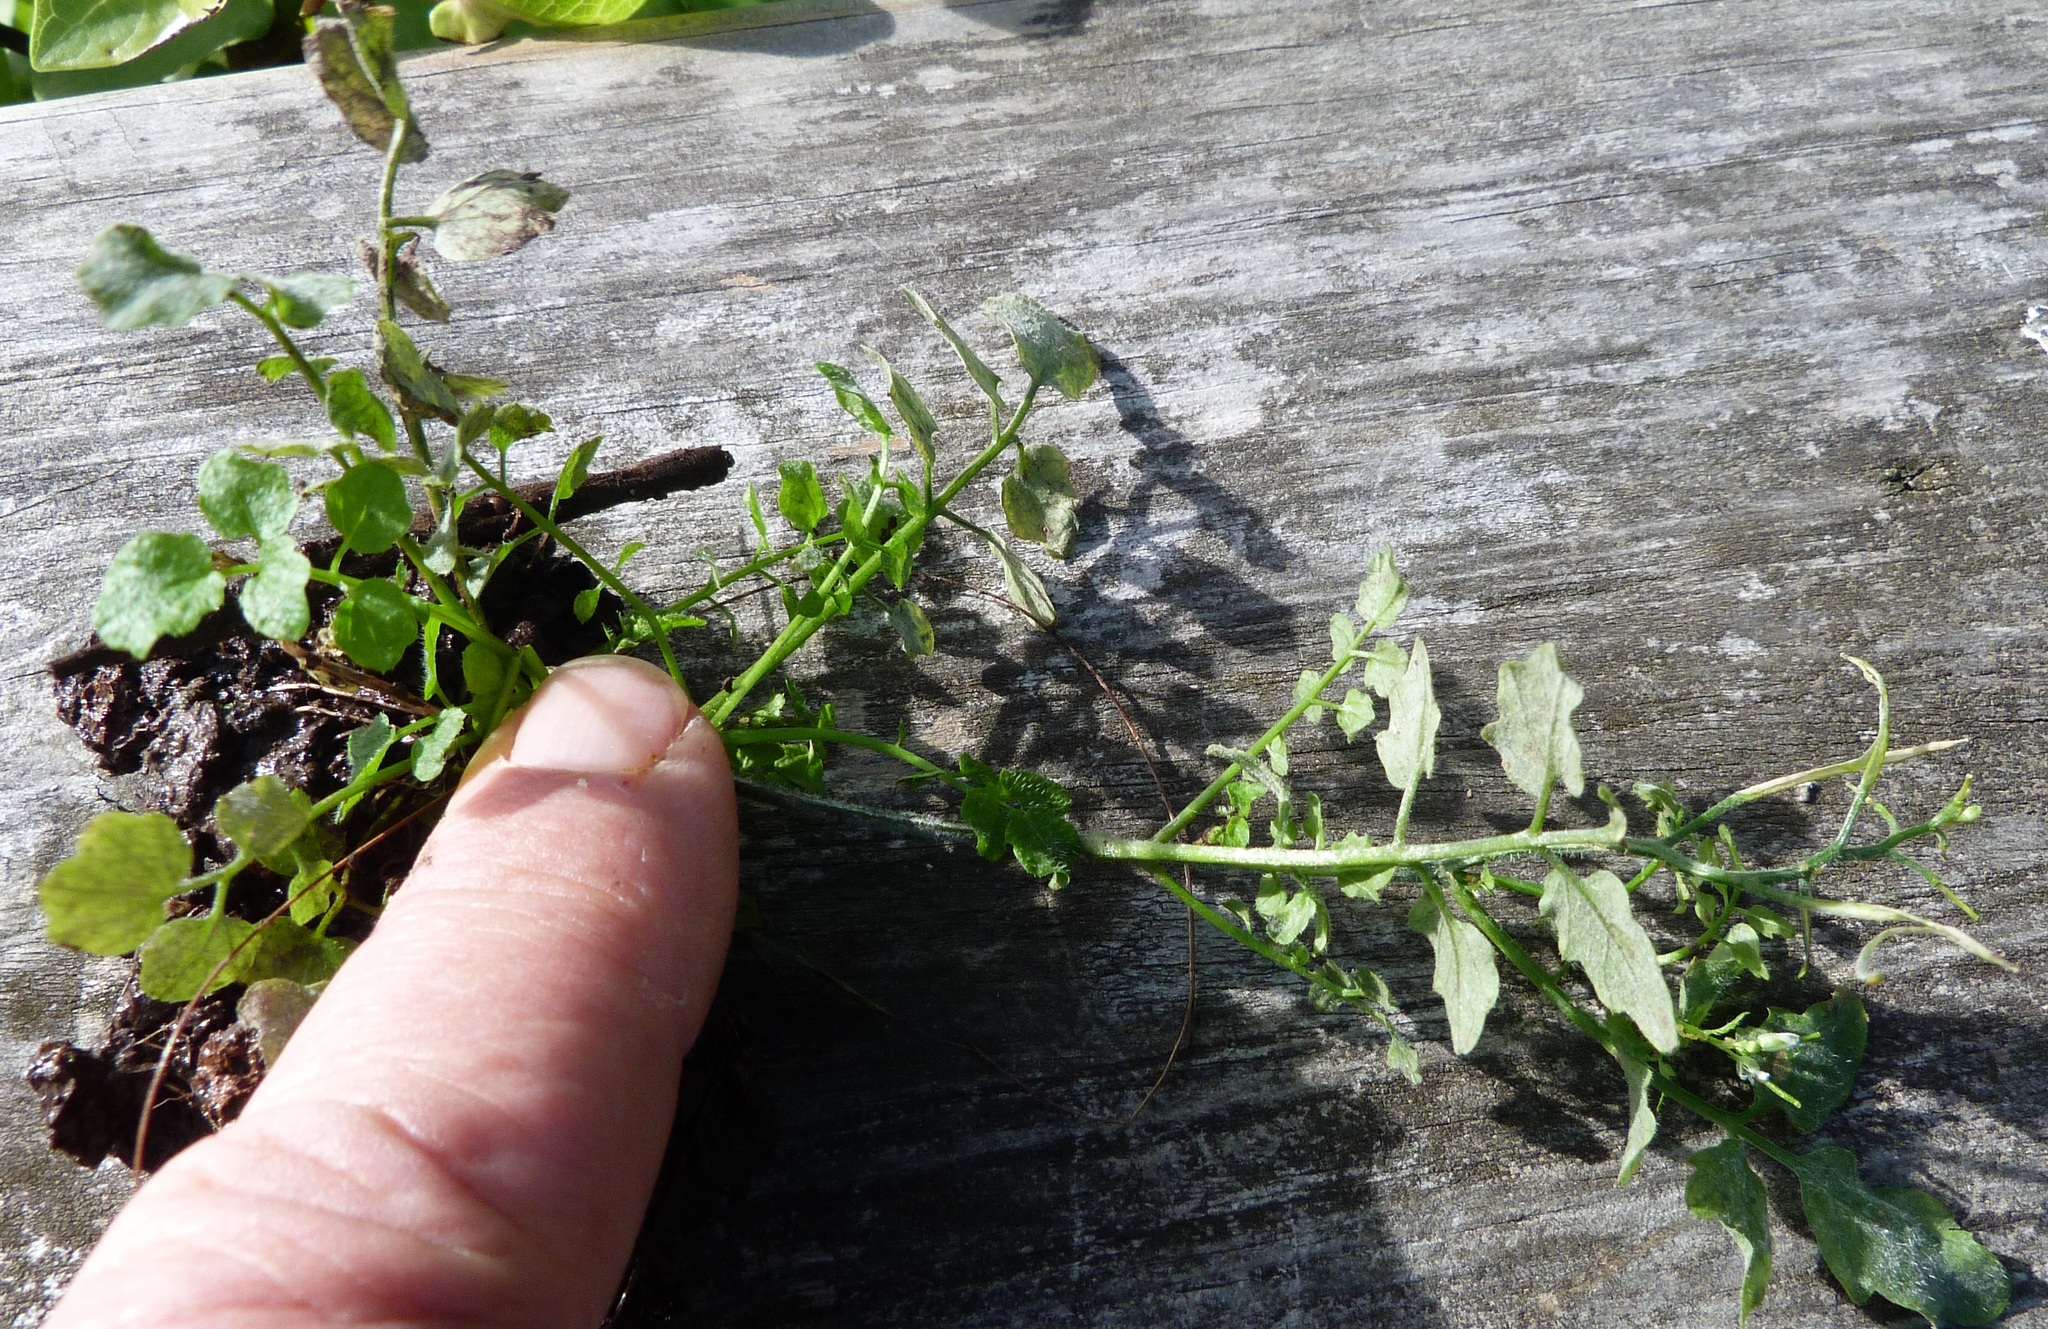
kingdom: Plantae
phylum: Tracheophyta
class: Magnoliopsida
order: Brassicales
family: Brassicaceae
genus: Cardamine
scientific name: Cardamine flexuosa
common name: Woodland bittercress
